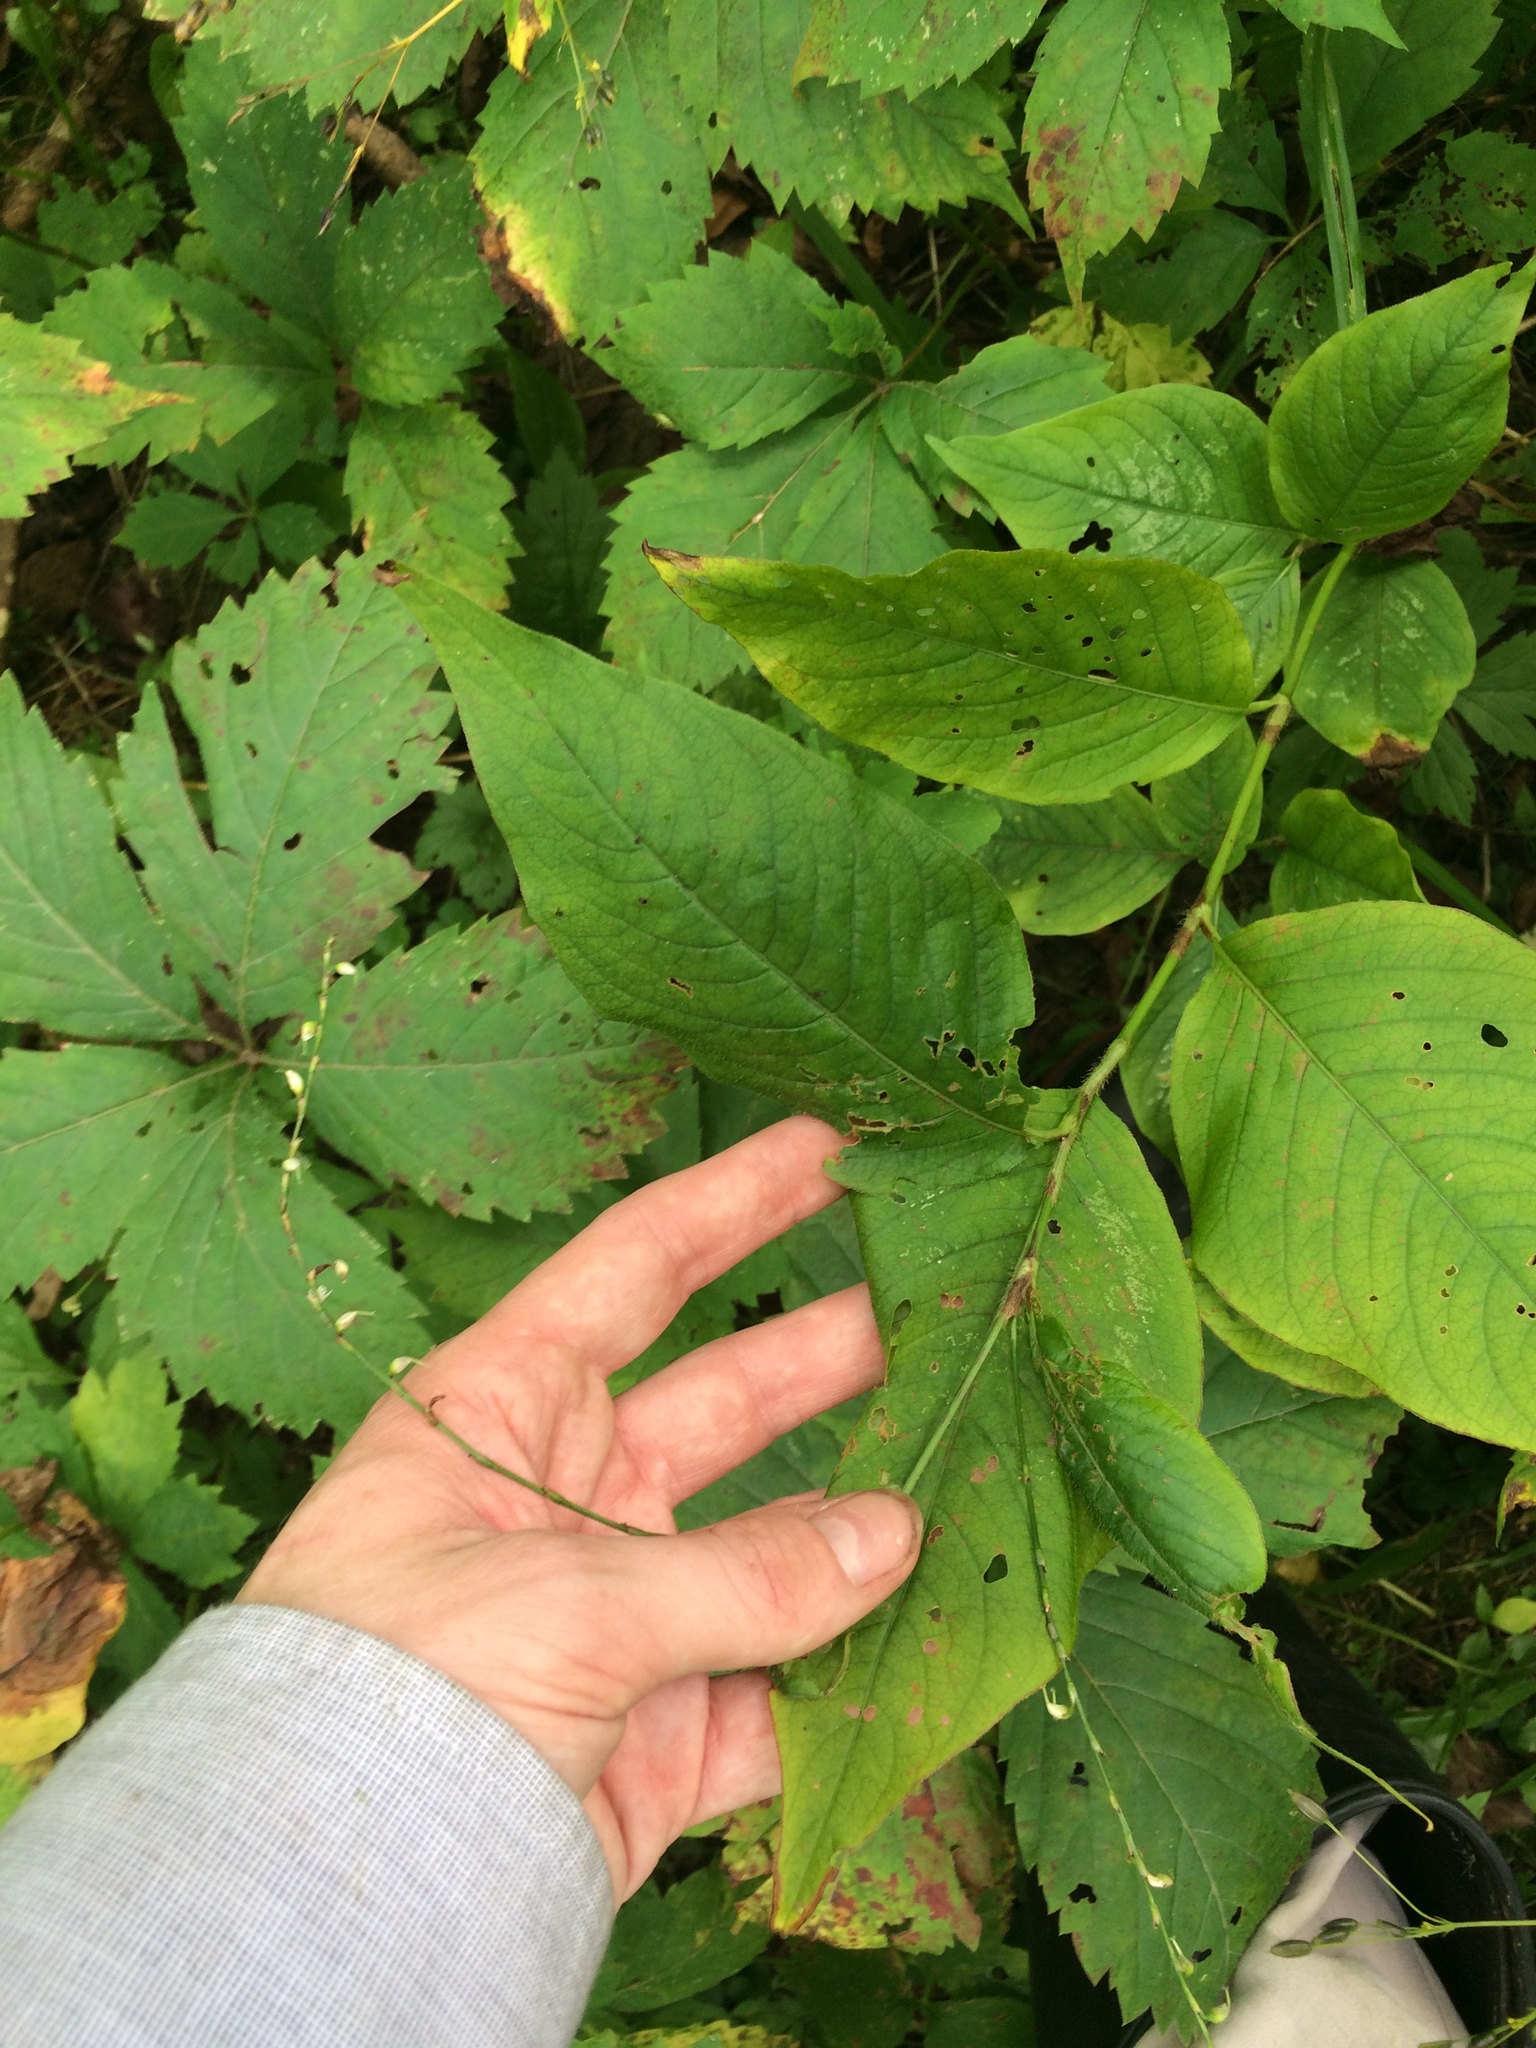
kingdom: Plantae
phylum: Tracheophyta
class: Magnoliopsida
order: Caryophyllales
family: Polygonaceae
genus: Persicaria
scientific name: Persicaria virginiana
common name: Jumpseed
